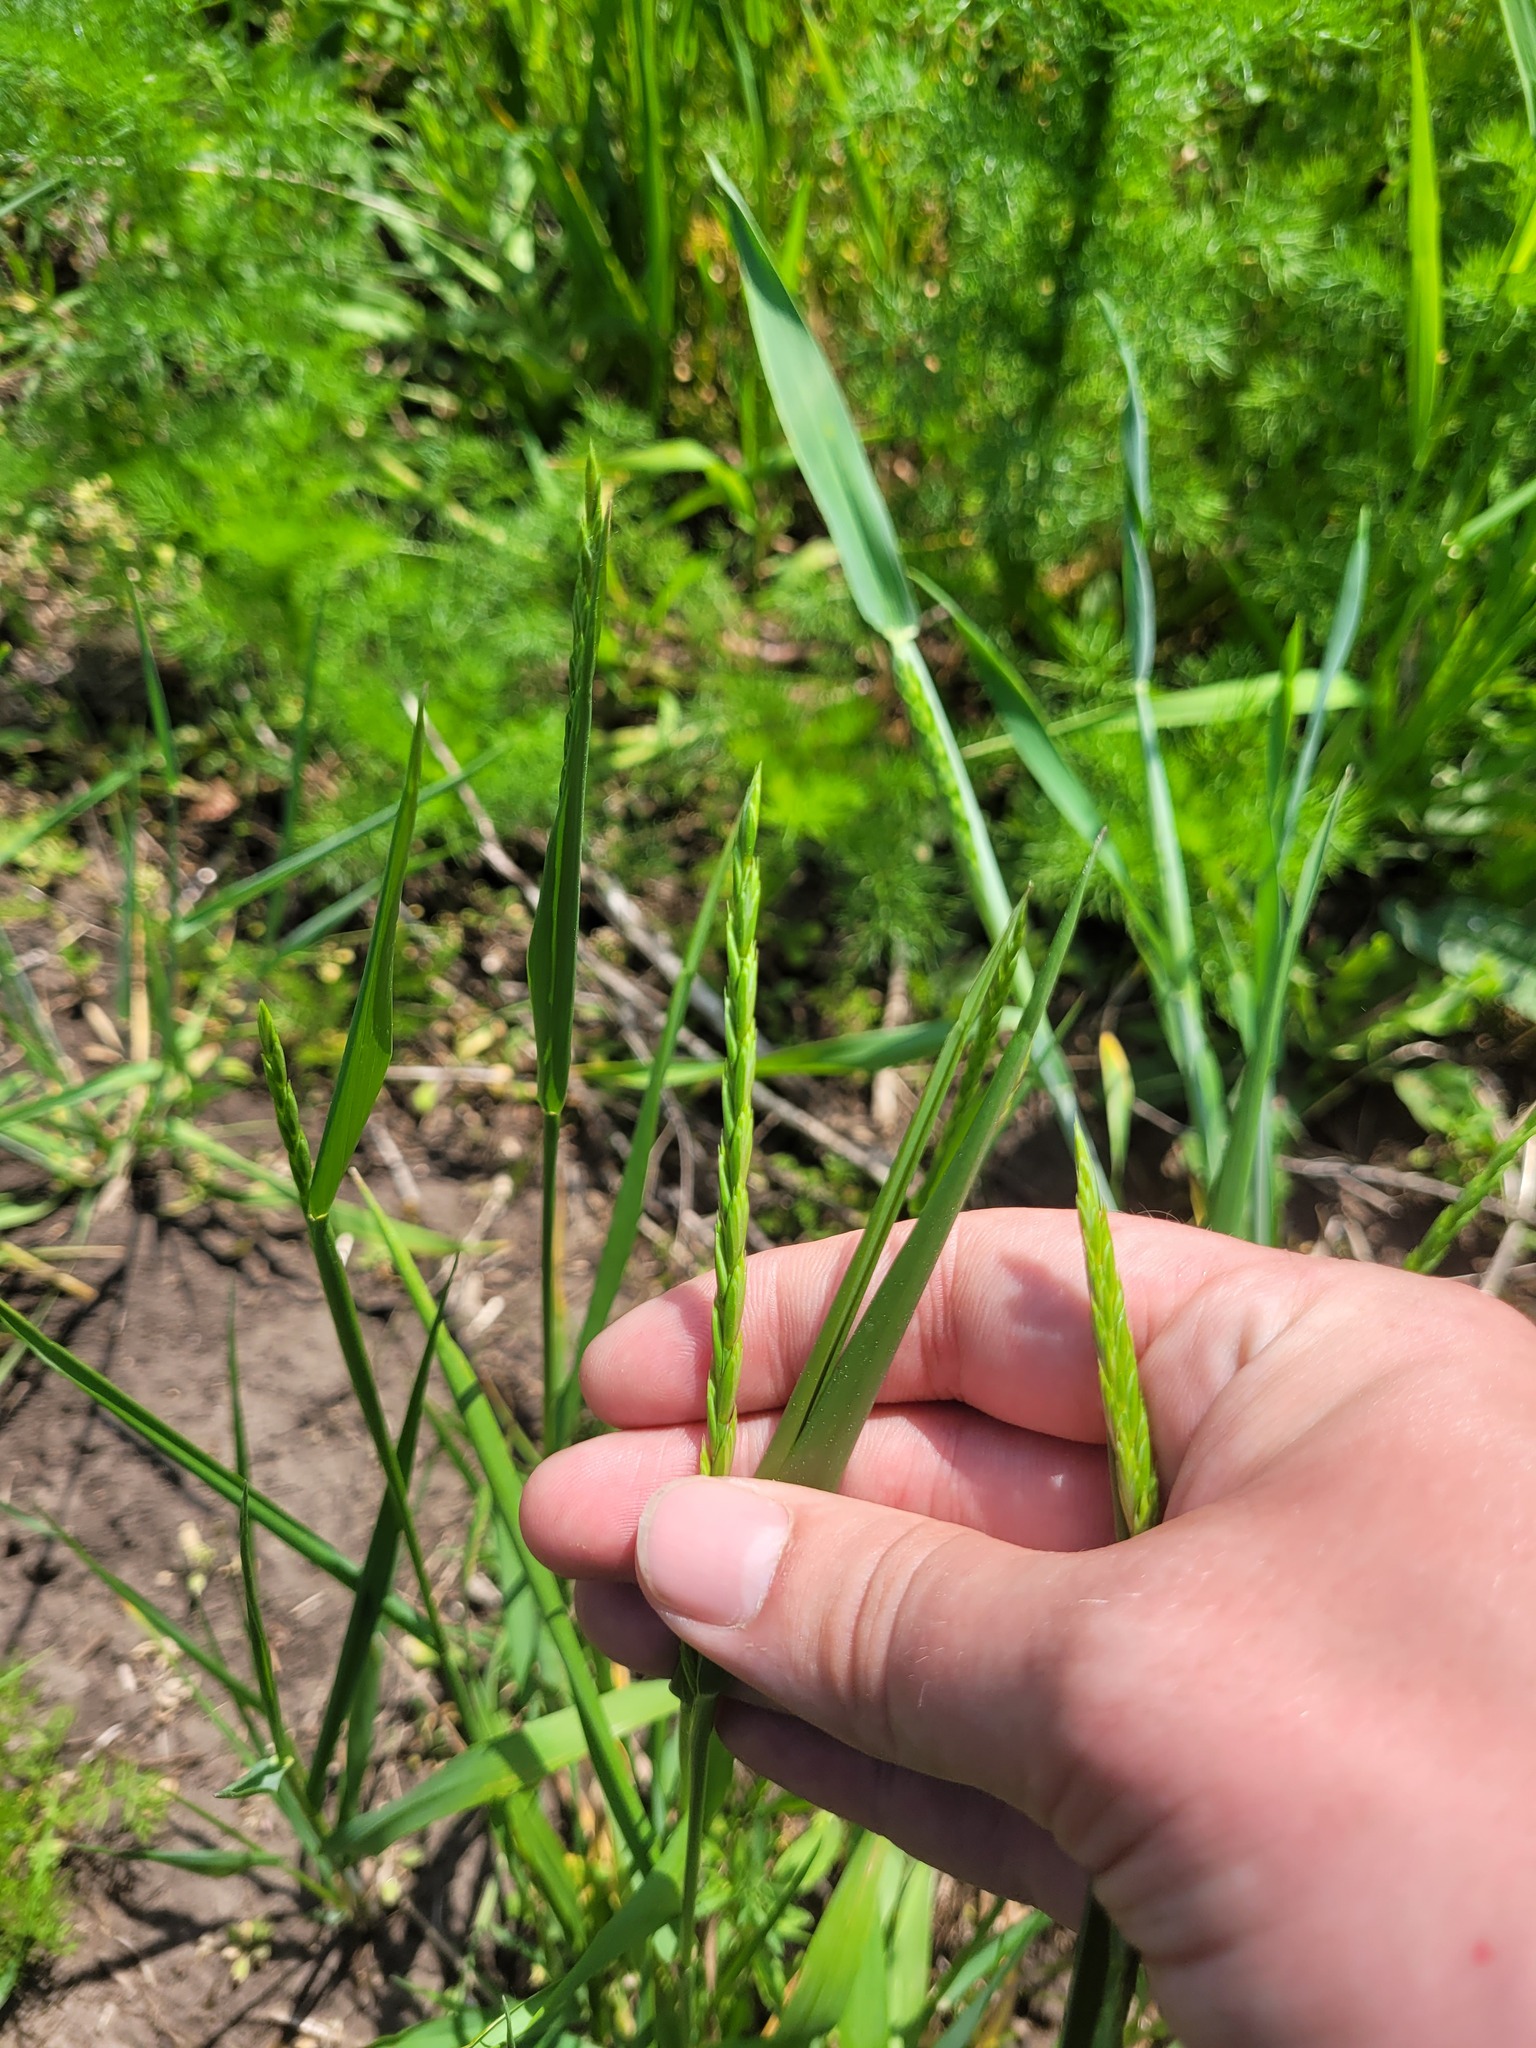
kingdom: Plantae
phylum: Tracheophyta
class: Liliopsida
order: Poales
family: Poaceae
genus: Elymus
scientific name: Elymus repens
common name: Quackgrass
